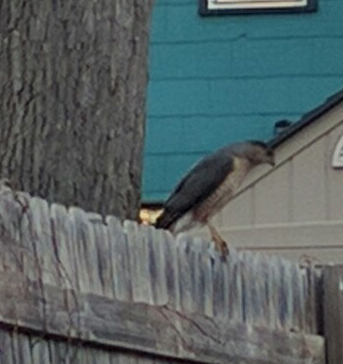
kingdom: Animalia
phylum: Chordata
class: Aves
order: Accipitriformes
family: Accipitridae
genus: Accipiter
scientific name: Accipiter cooperii
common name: Cooper's hawk
